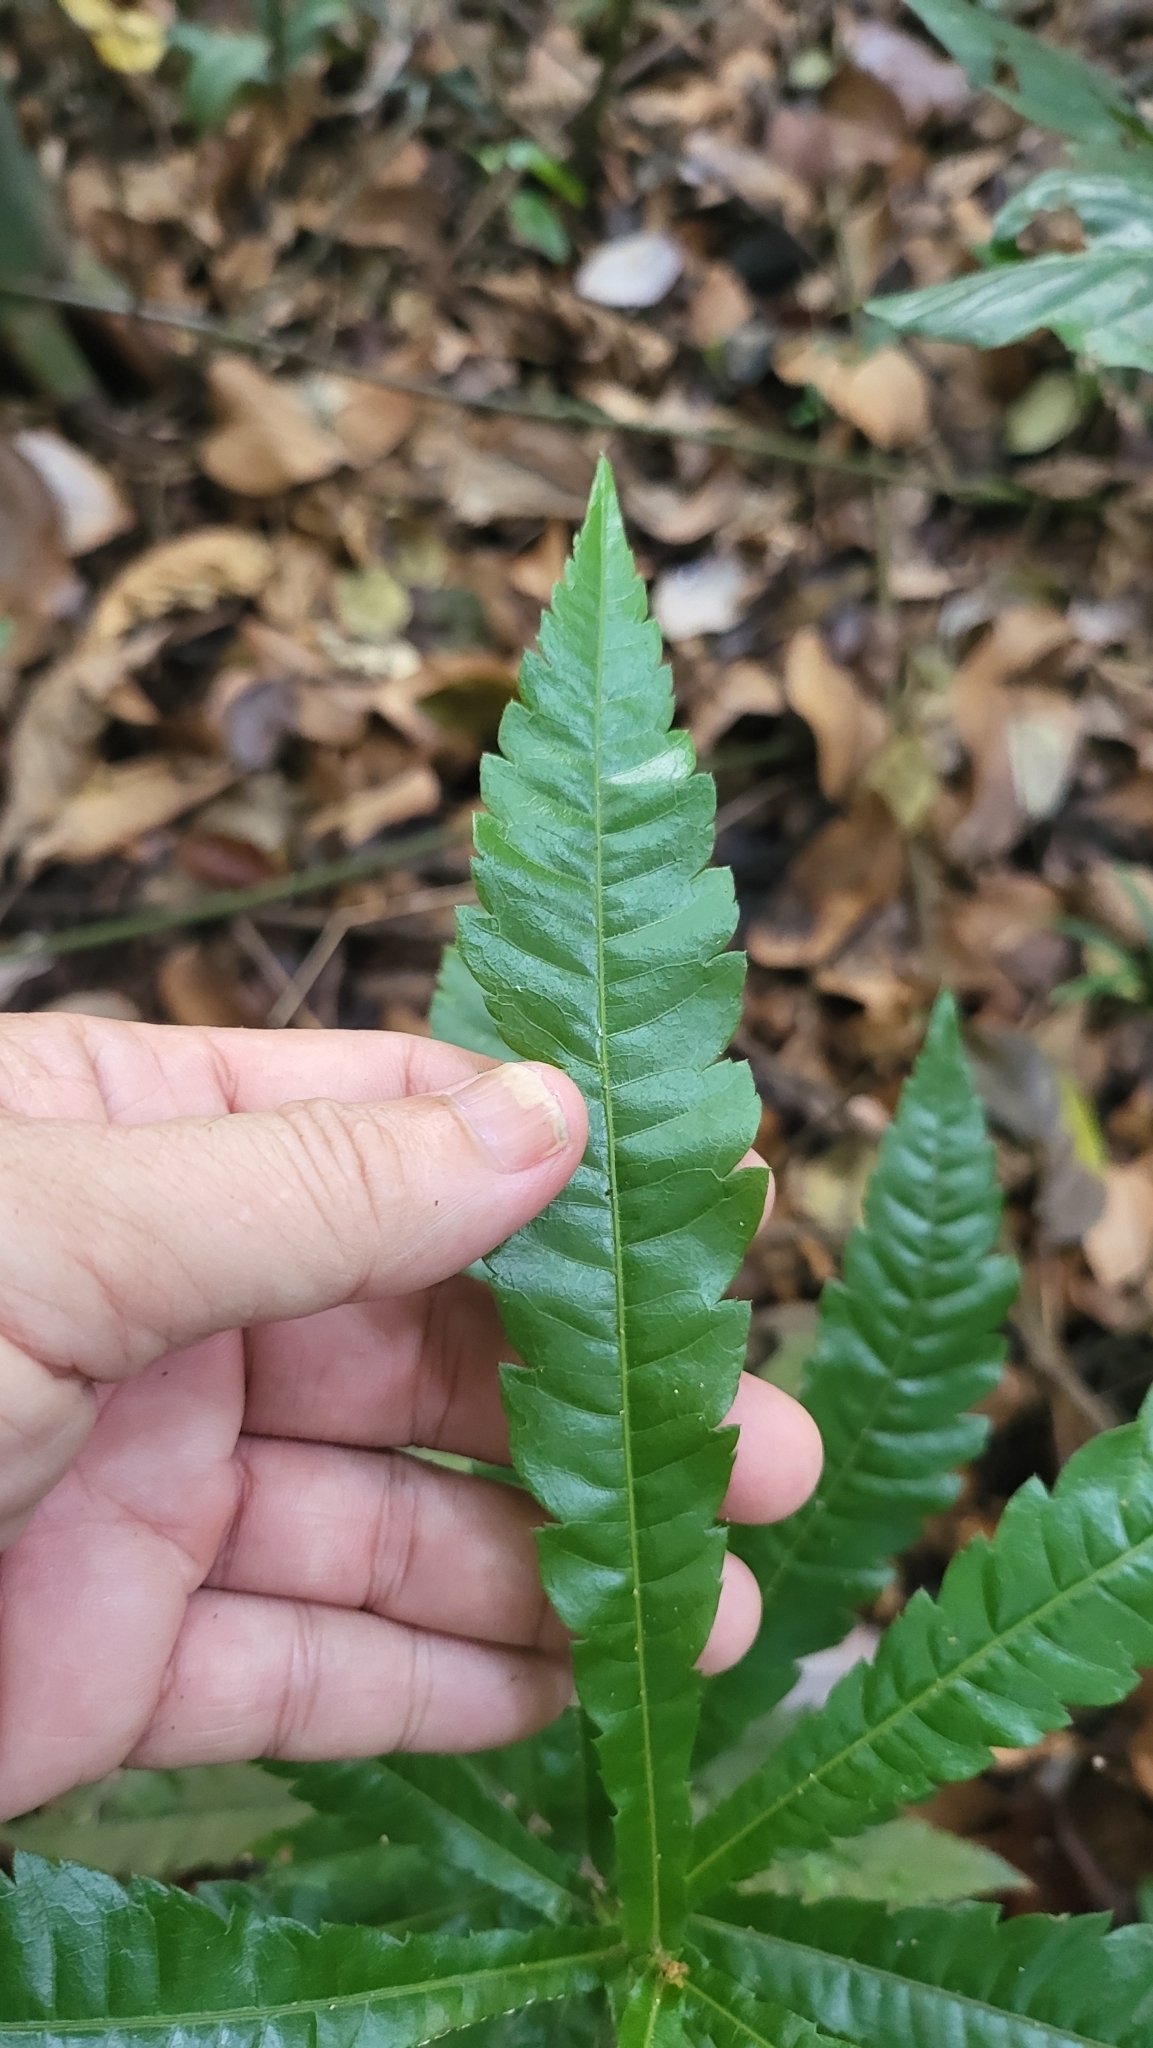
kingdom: Plantae
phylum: Tracheophyta
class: Magnoliopsida
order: Fagales
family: Myricaceae
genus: Morella
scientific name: Morella esculenta
